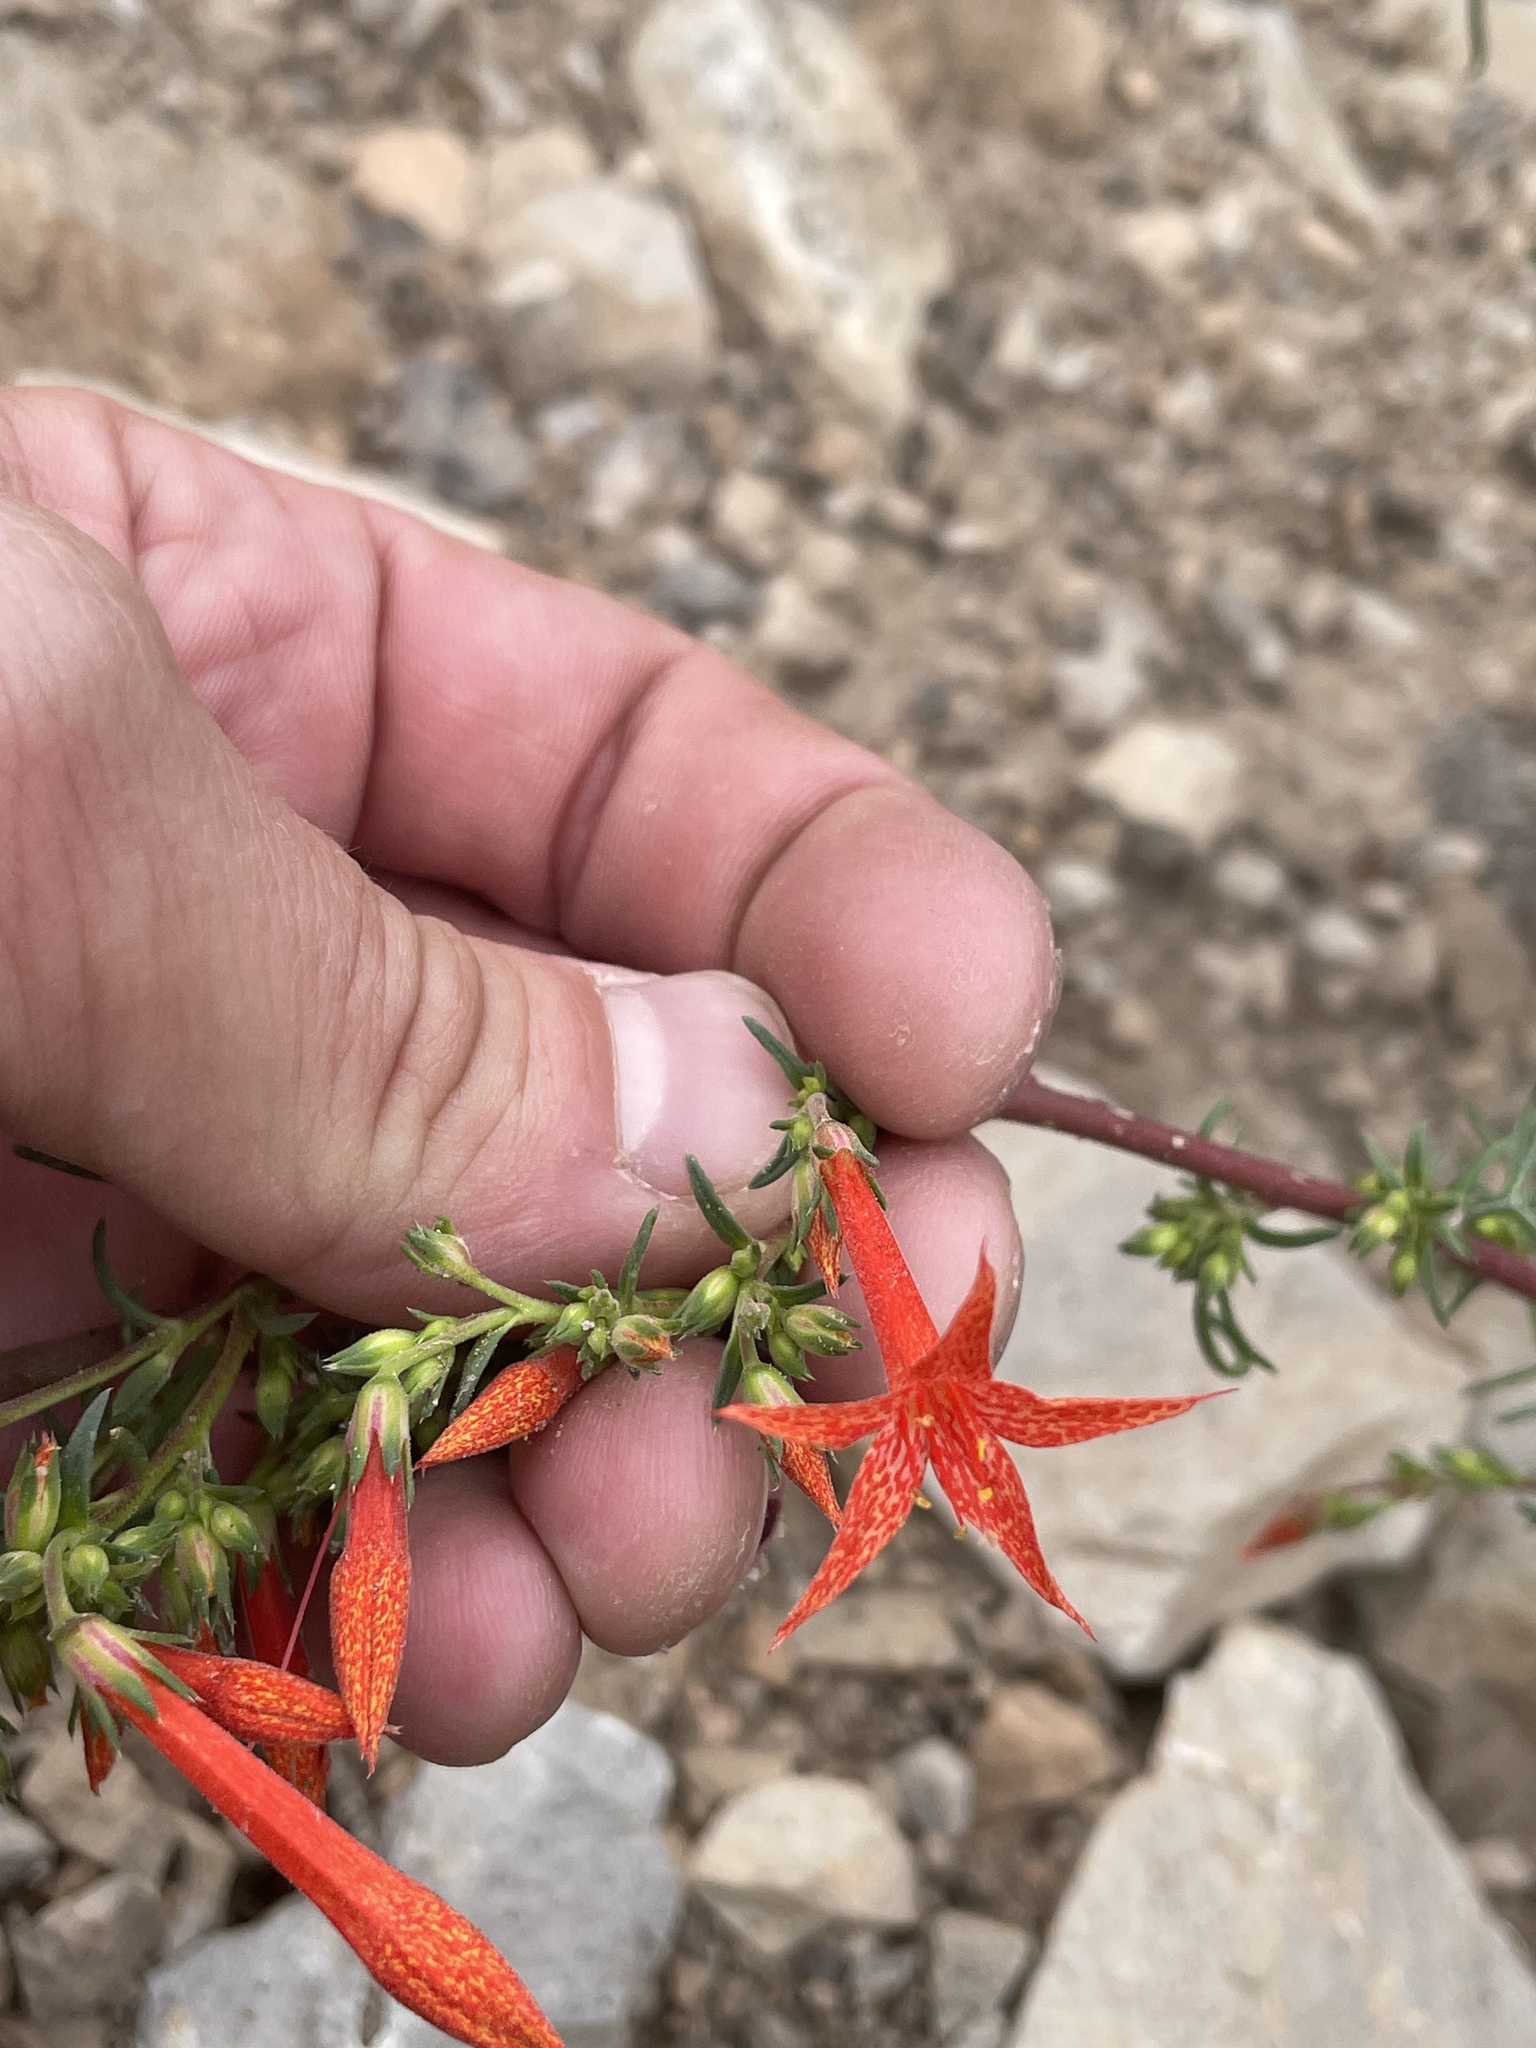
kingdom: Plantae
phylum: Tracheophyta
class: Magnoliopsida
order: Ericales
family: Polemoniaceae
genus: Ipomopsis
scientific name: Ipomopsis aggregata
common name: Scarlet gilia
